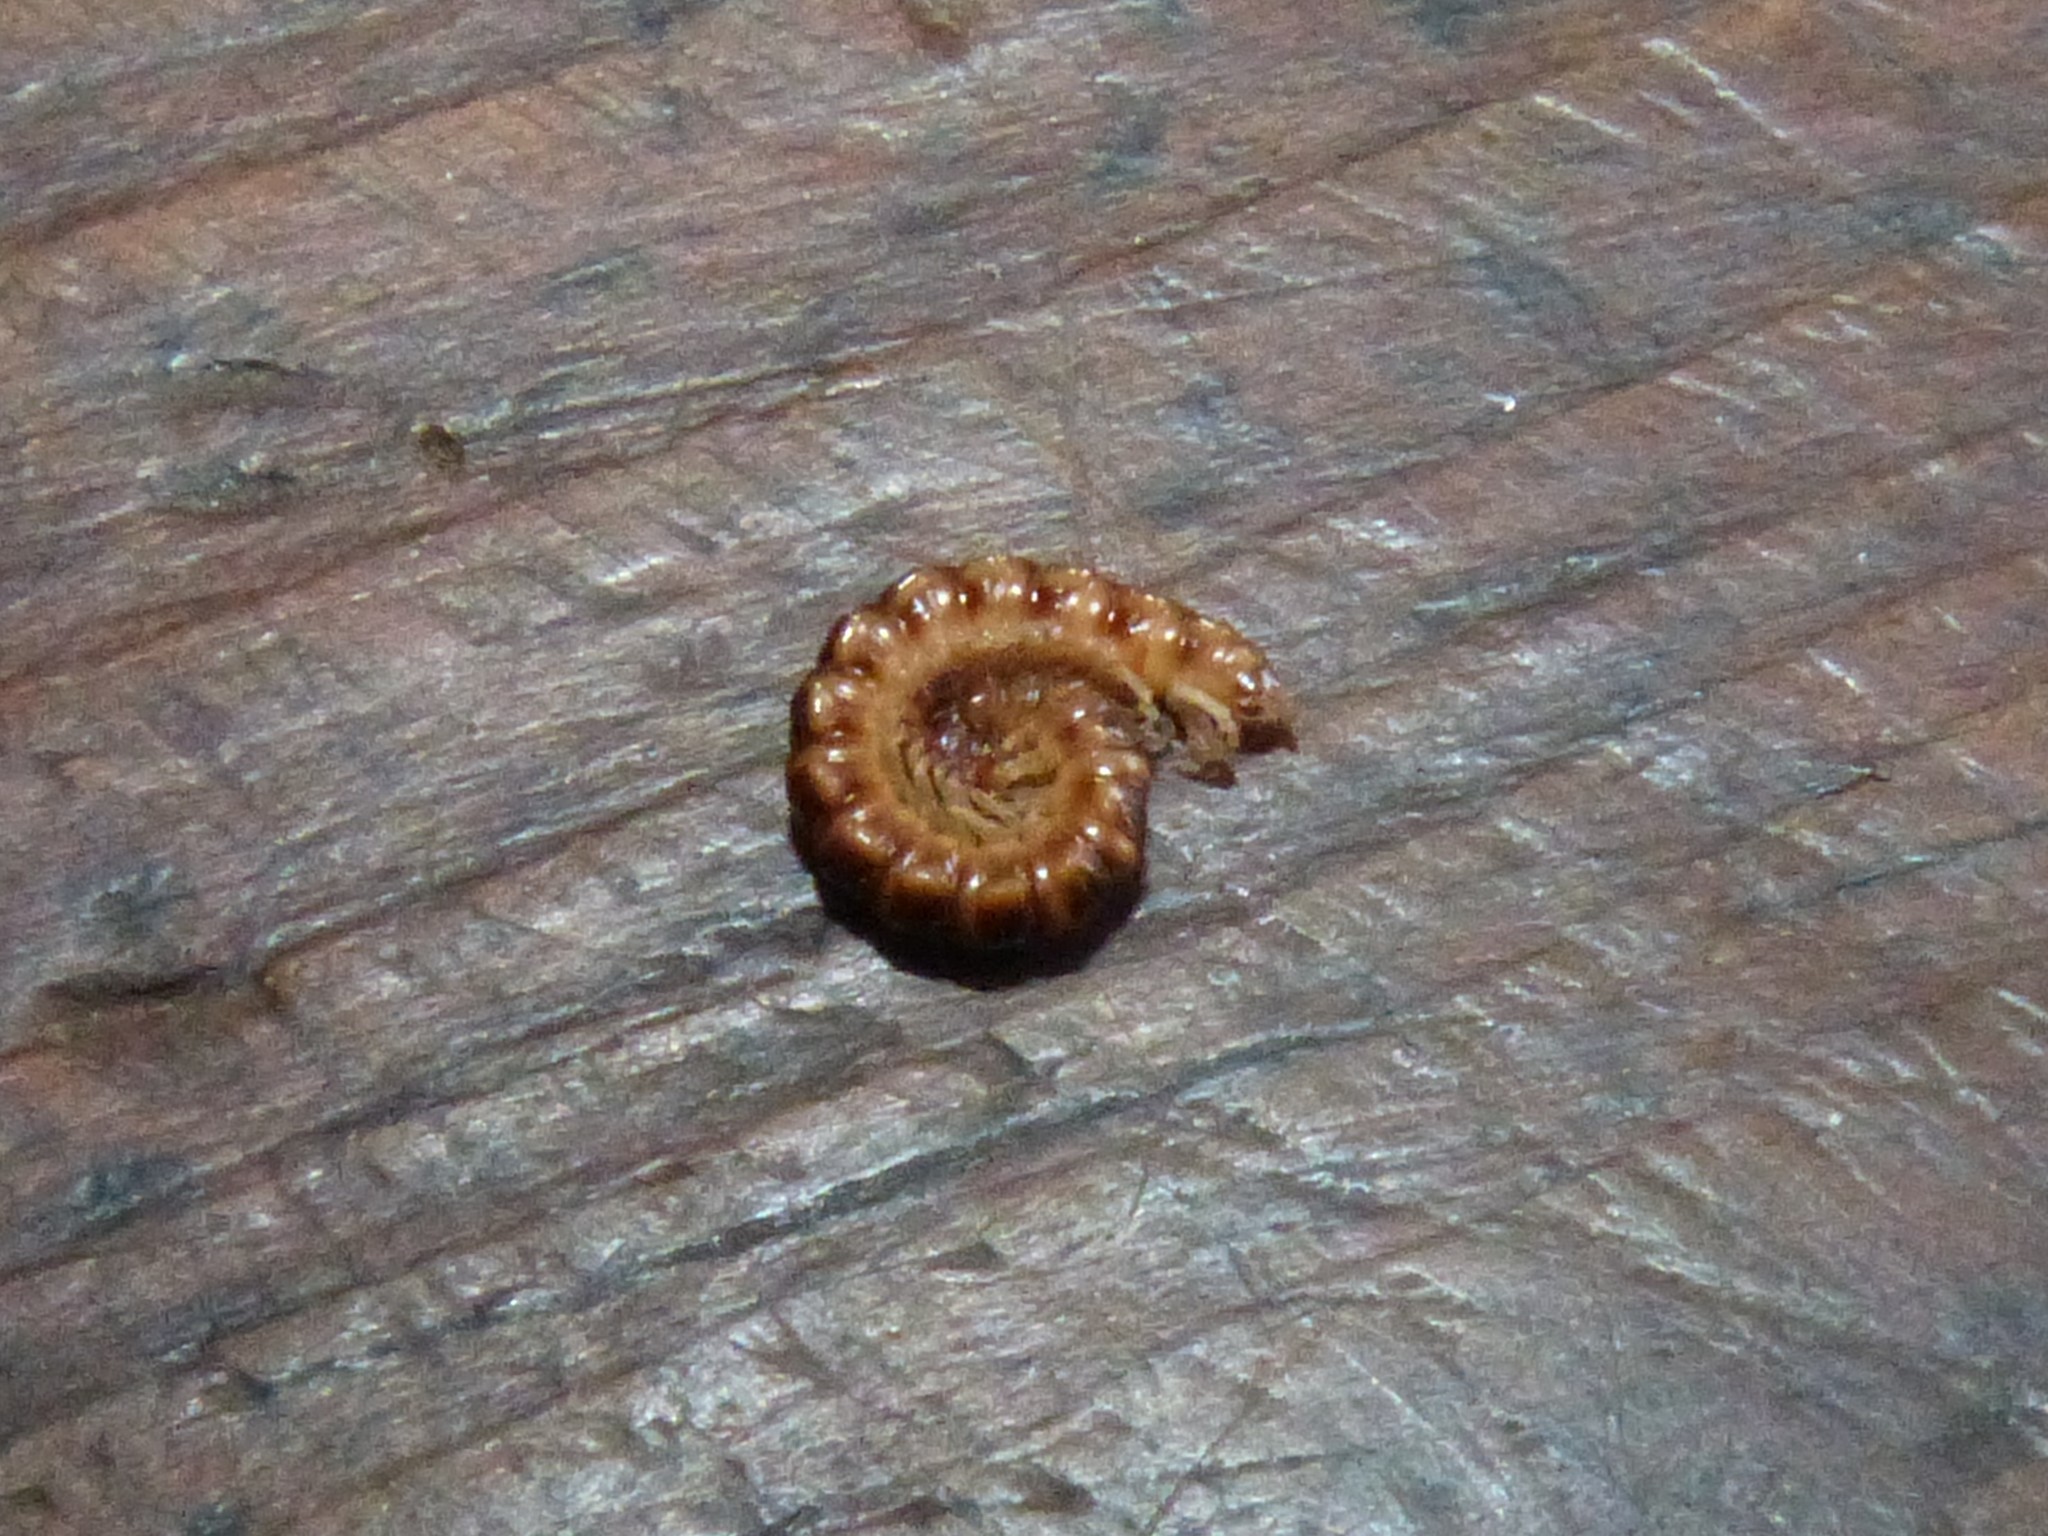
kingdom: Animalia
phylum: Arthropoda
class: Diplopoda
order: Polydesmida
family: Paradoxosomatidae
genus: Oxidus
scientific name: Oxidus gracilis
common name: Greenhouse millipede
